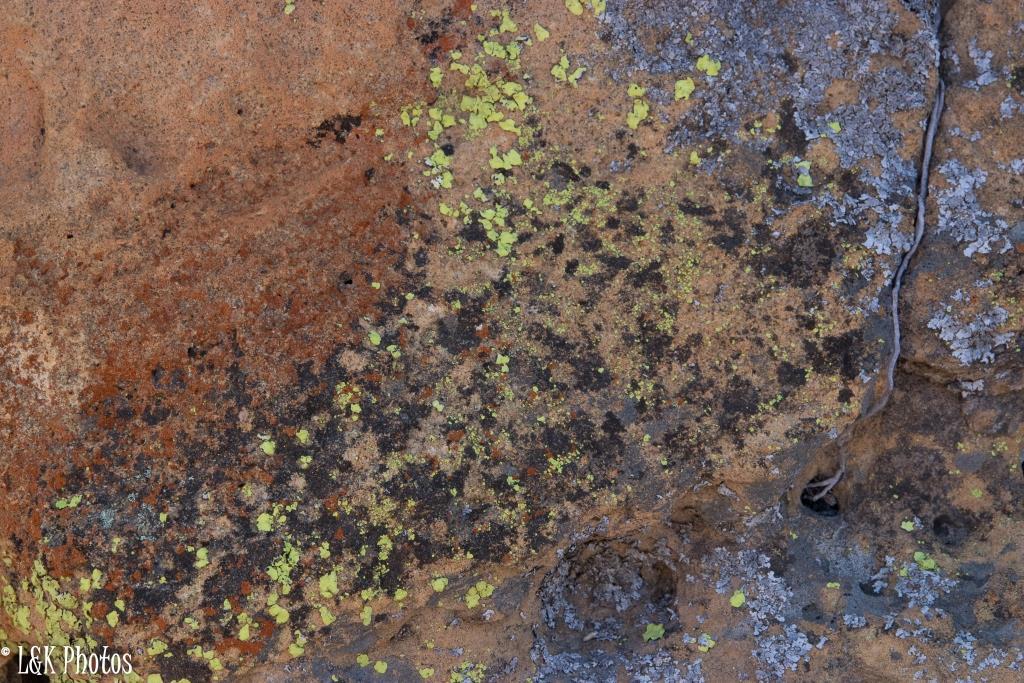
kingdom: Fungi
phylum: Ascomycota
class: Lecanoromycetes
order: Caliciales
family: Caliciaceae
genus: Dermatiscum
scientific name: Dermatiscum thunbergii
